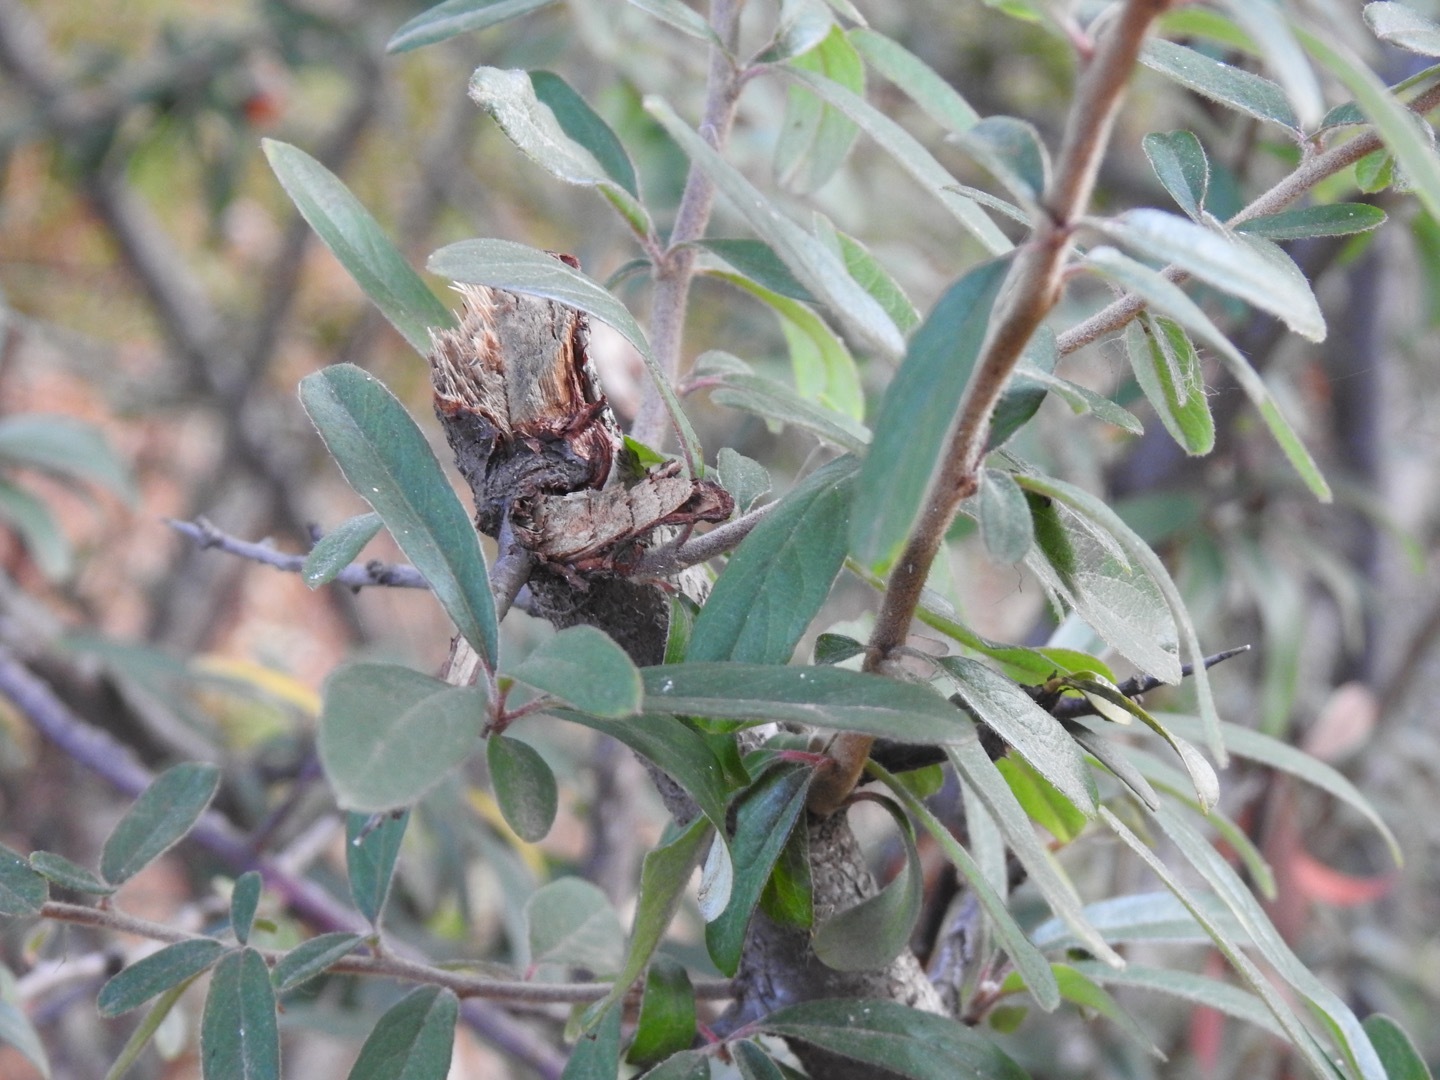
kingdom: Plantae
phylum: Tracheophyta
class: Magnoliopsida
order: Rosales
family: Rosaceae
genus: Pyracantha
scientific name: Pyracantha angustifolia
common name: Narrowleaf firethorn
